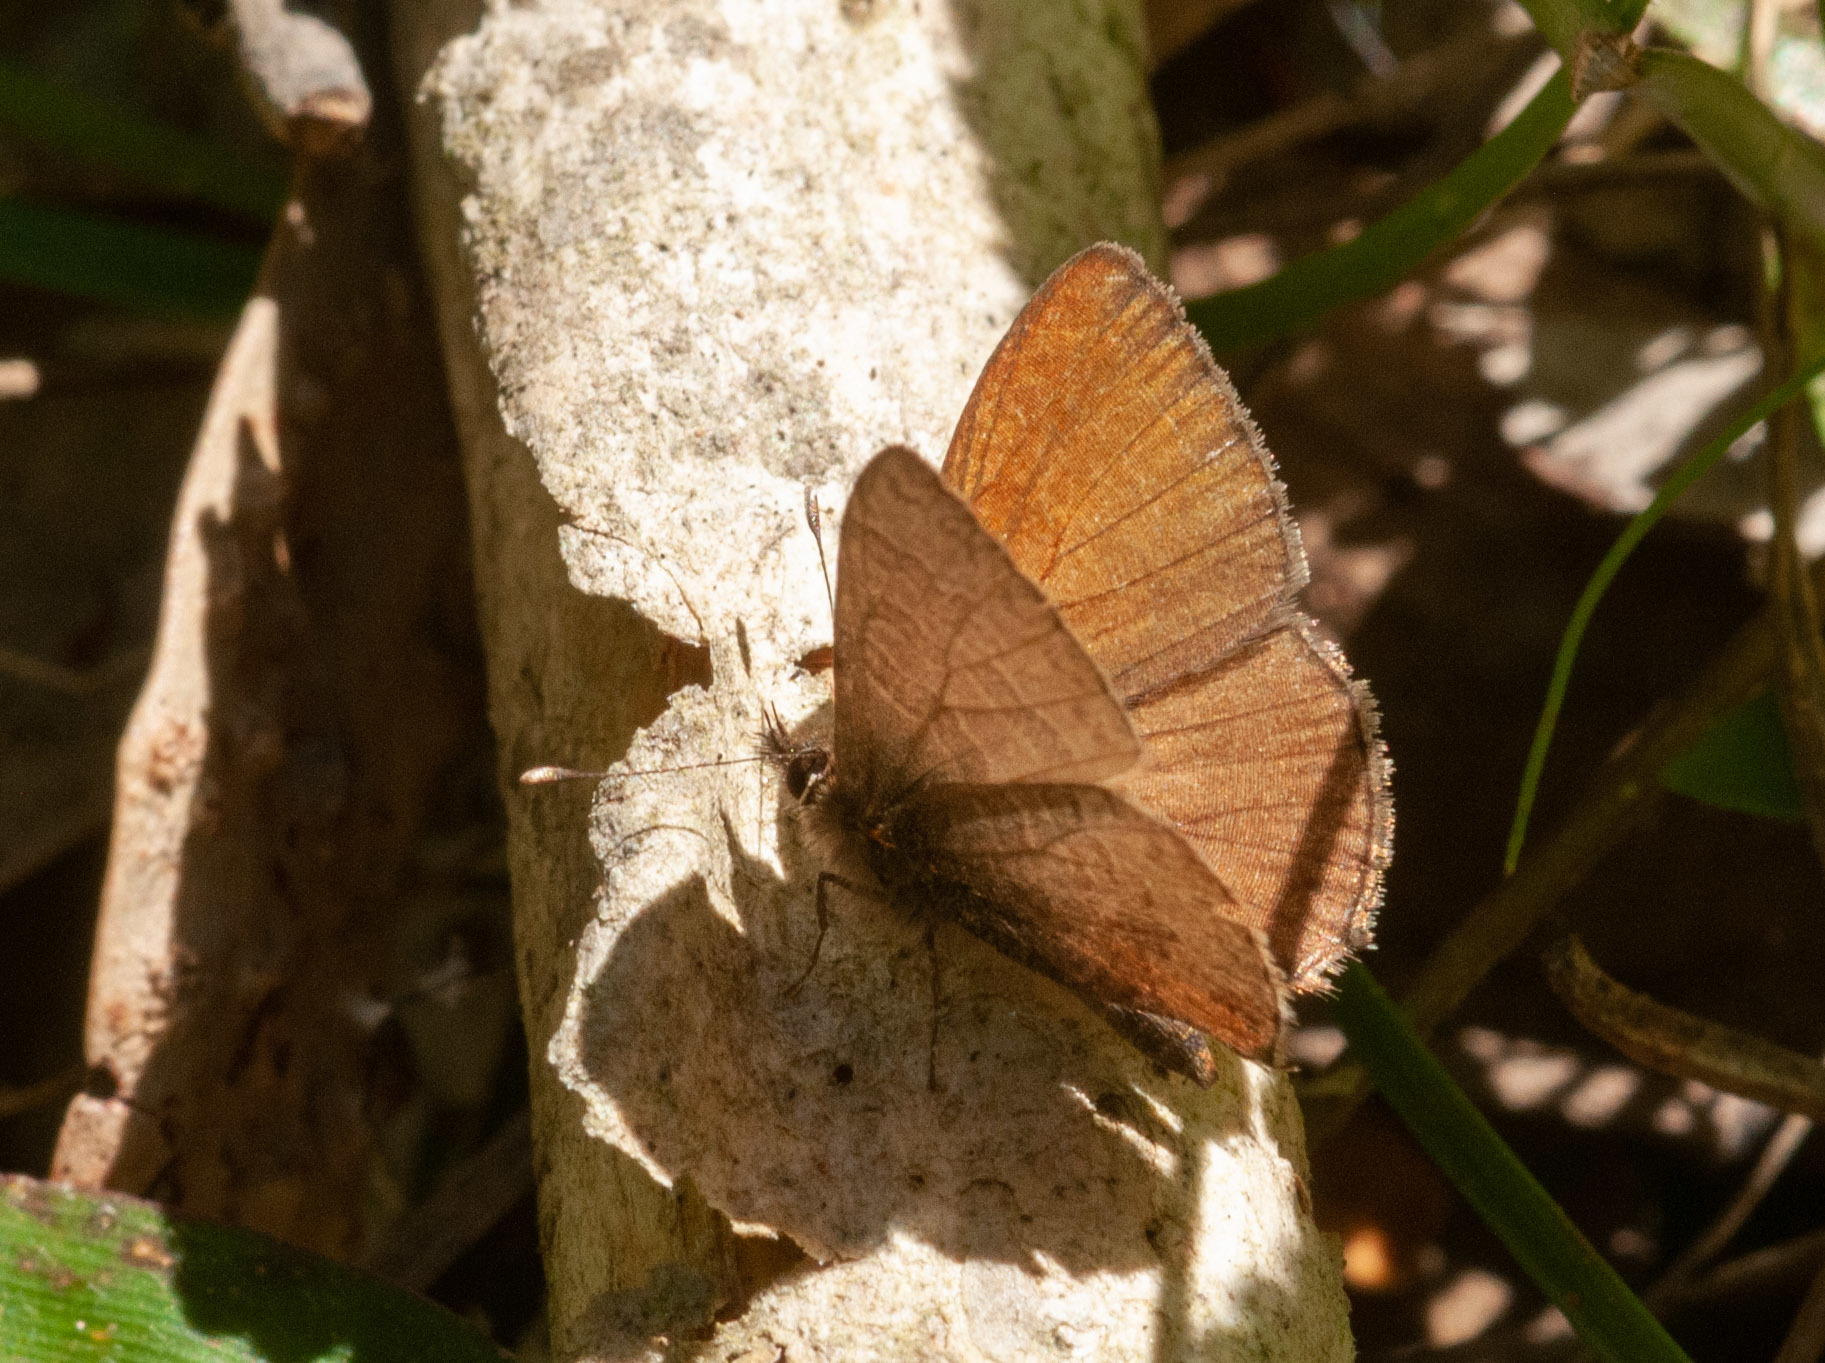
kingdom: Animalia
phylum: Arthropoda
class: Insecta
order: Lepidoptera
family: Lycaenidae
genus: Prosotas
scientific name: Prosotas felderi
